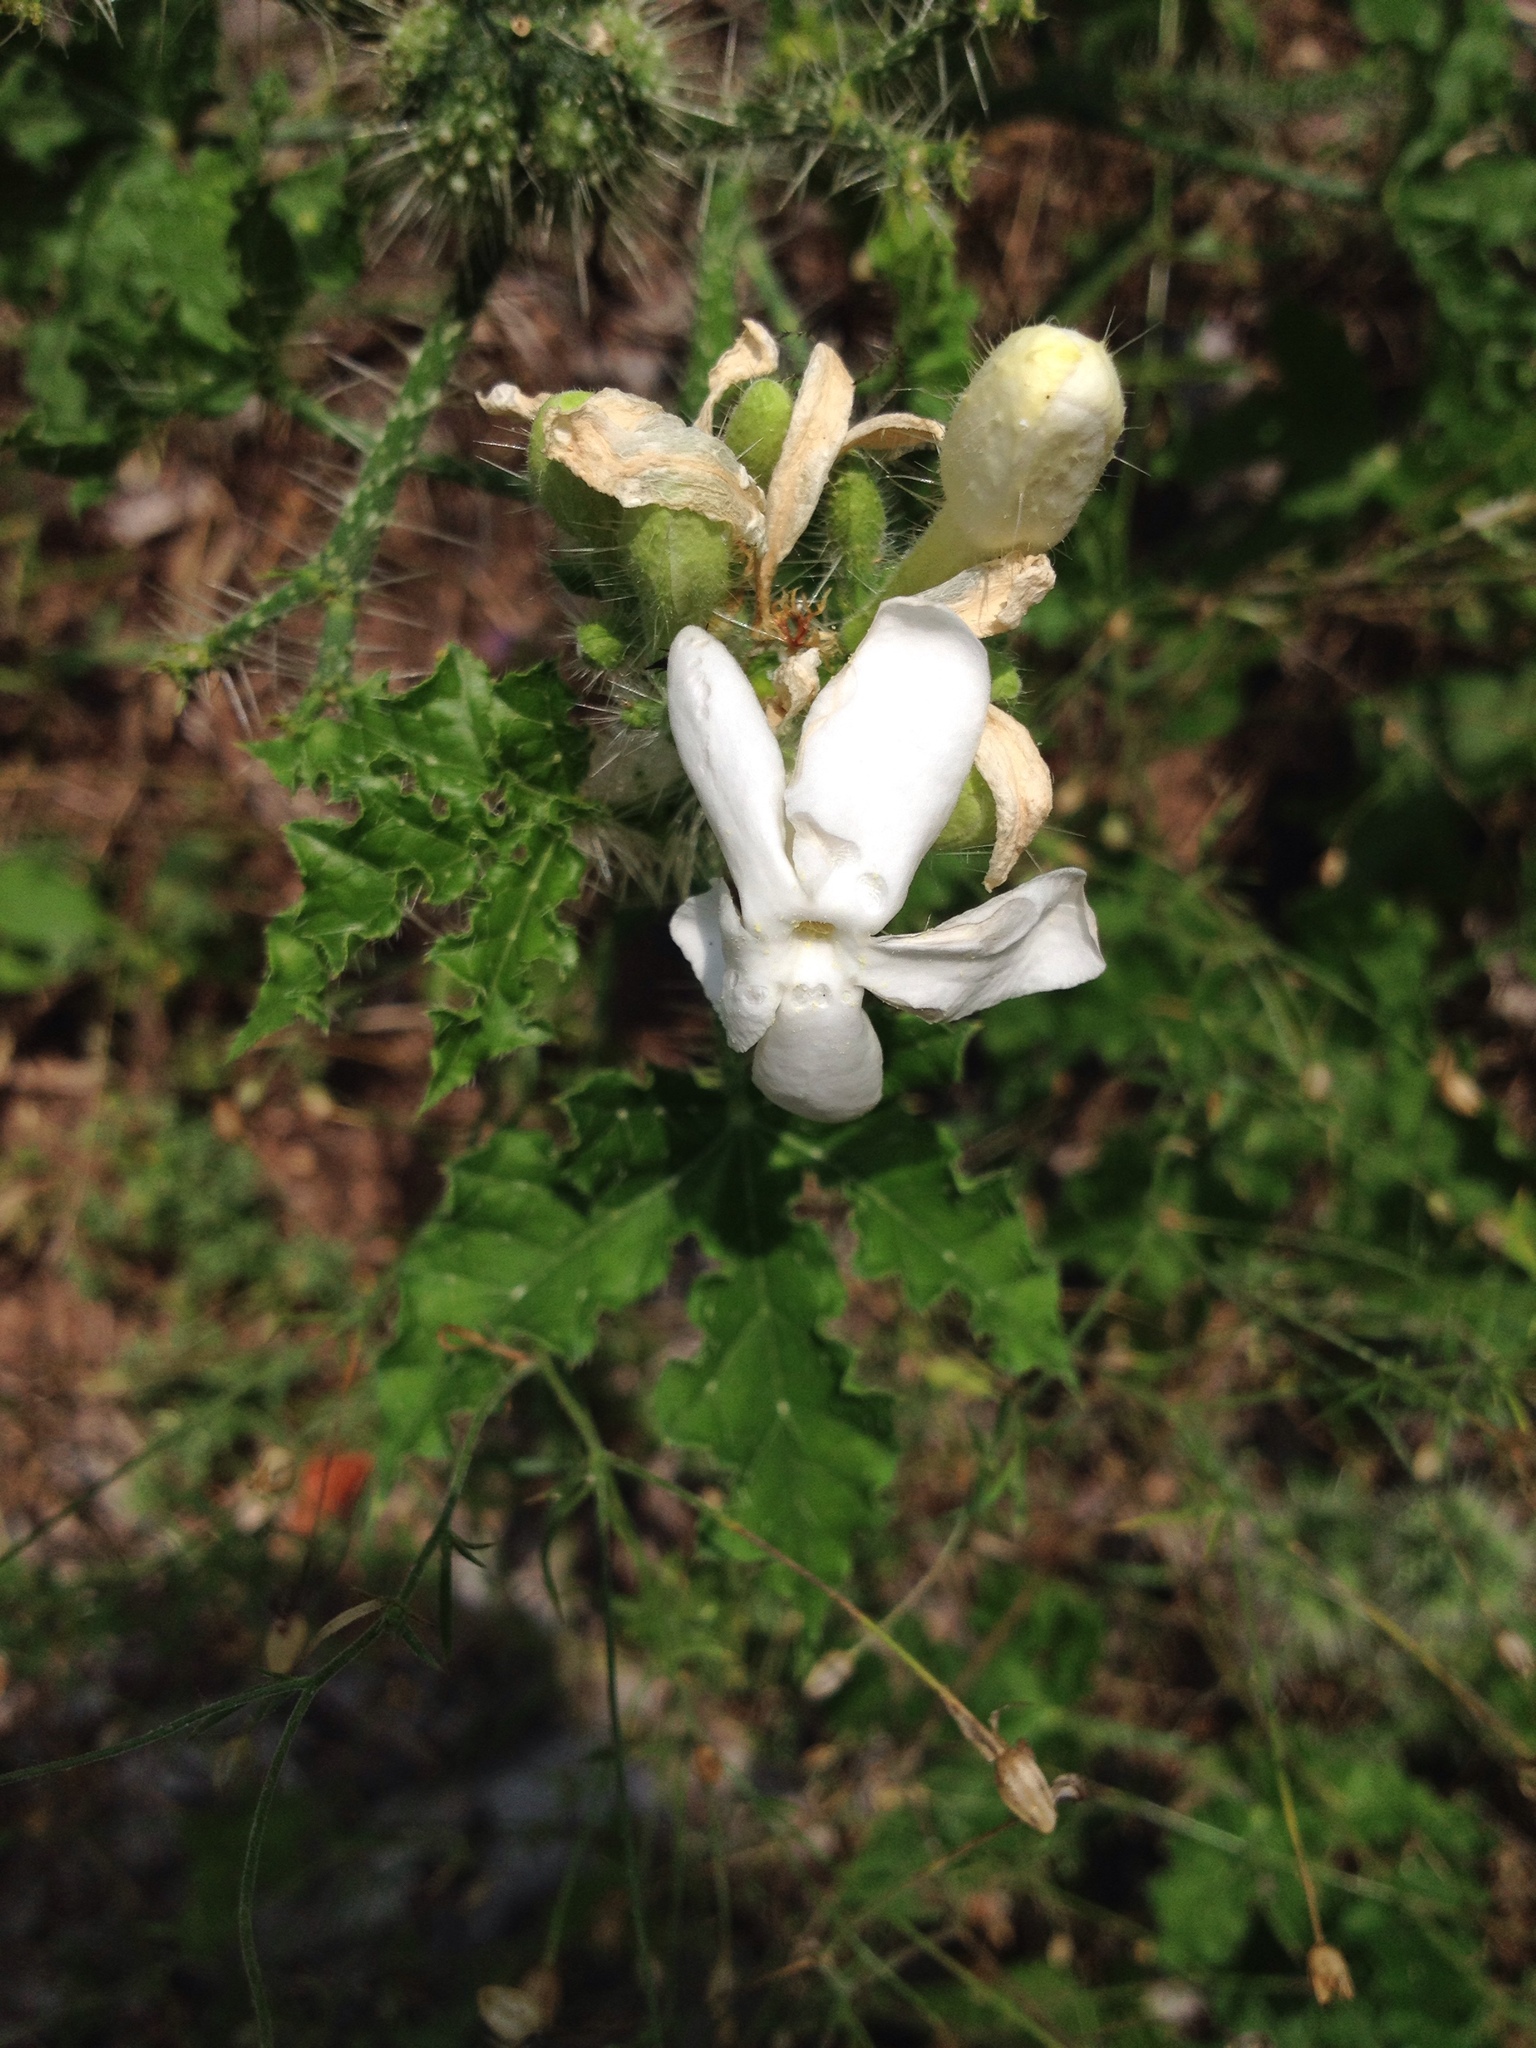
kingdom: Plantae
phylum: Tracheophyta
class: Magnoliopsida
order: Malpighiales
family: Euphorbiaceae
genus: Cnidoscolus
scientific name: Cnidoscolus texanus
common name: Texas bull-nettle
